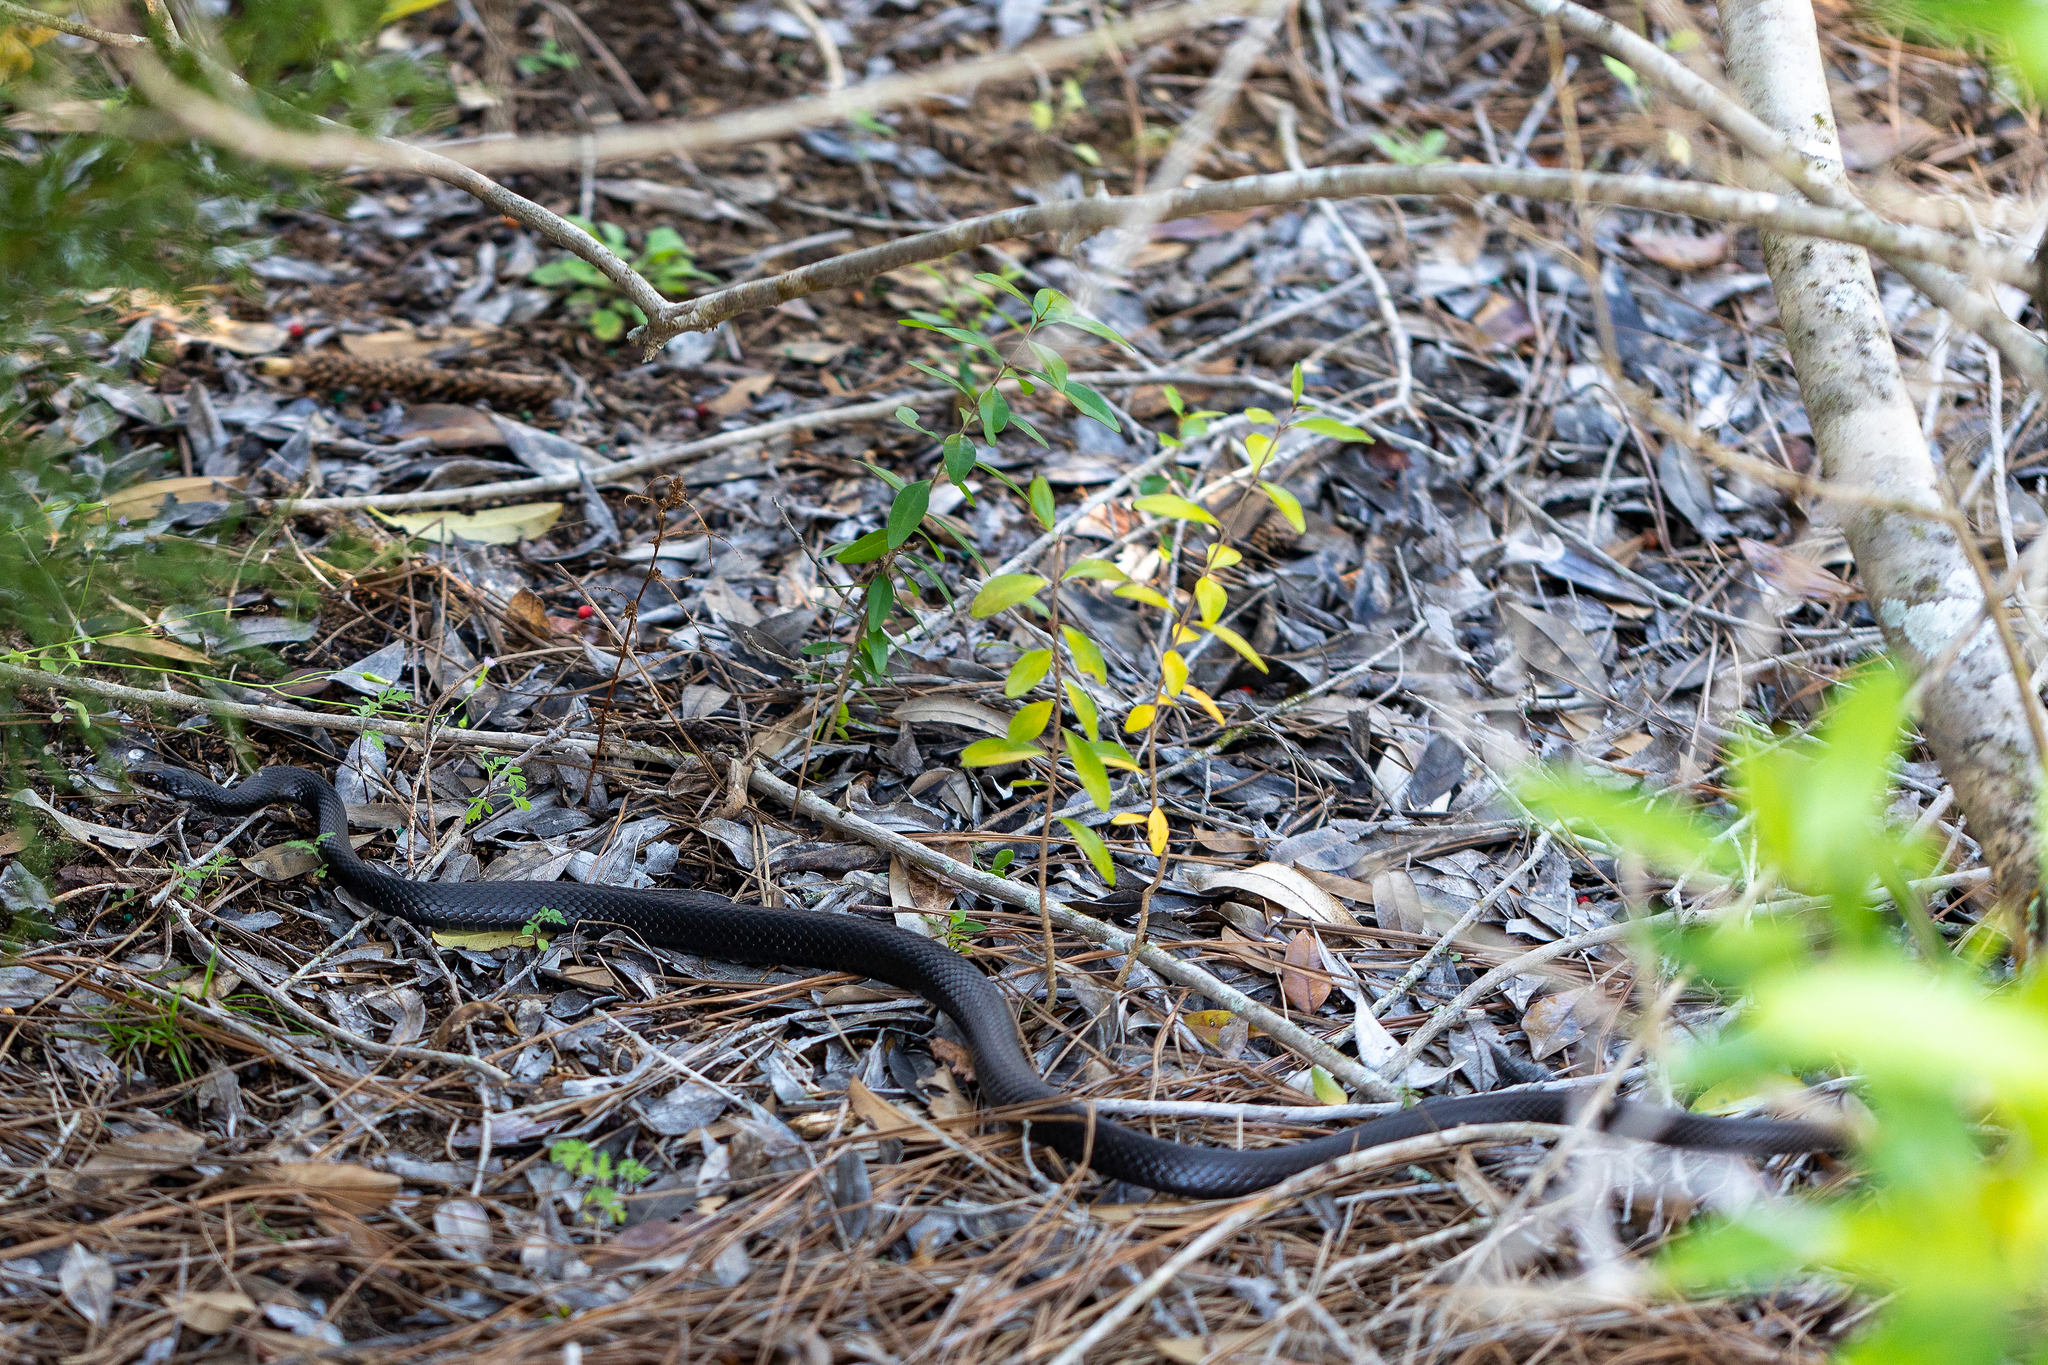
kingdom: Animalia
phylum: Chordata
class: Squamata
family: Colubridae
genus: Coluber
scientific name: Coluber constrictor
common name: Eastern racer
